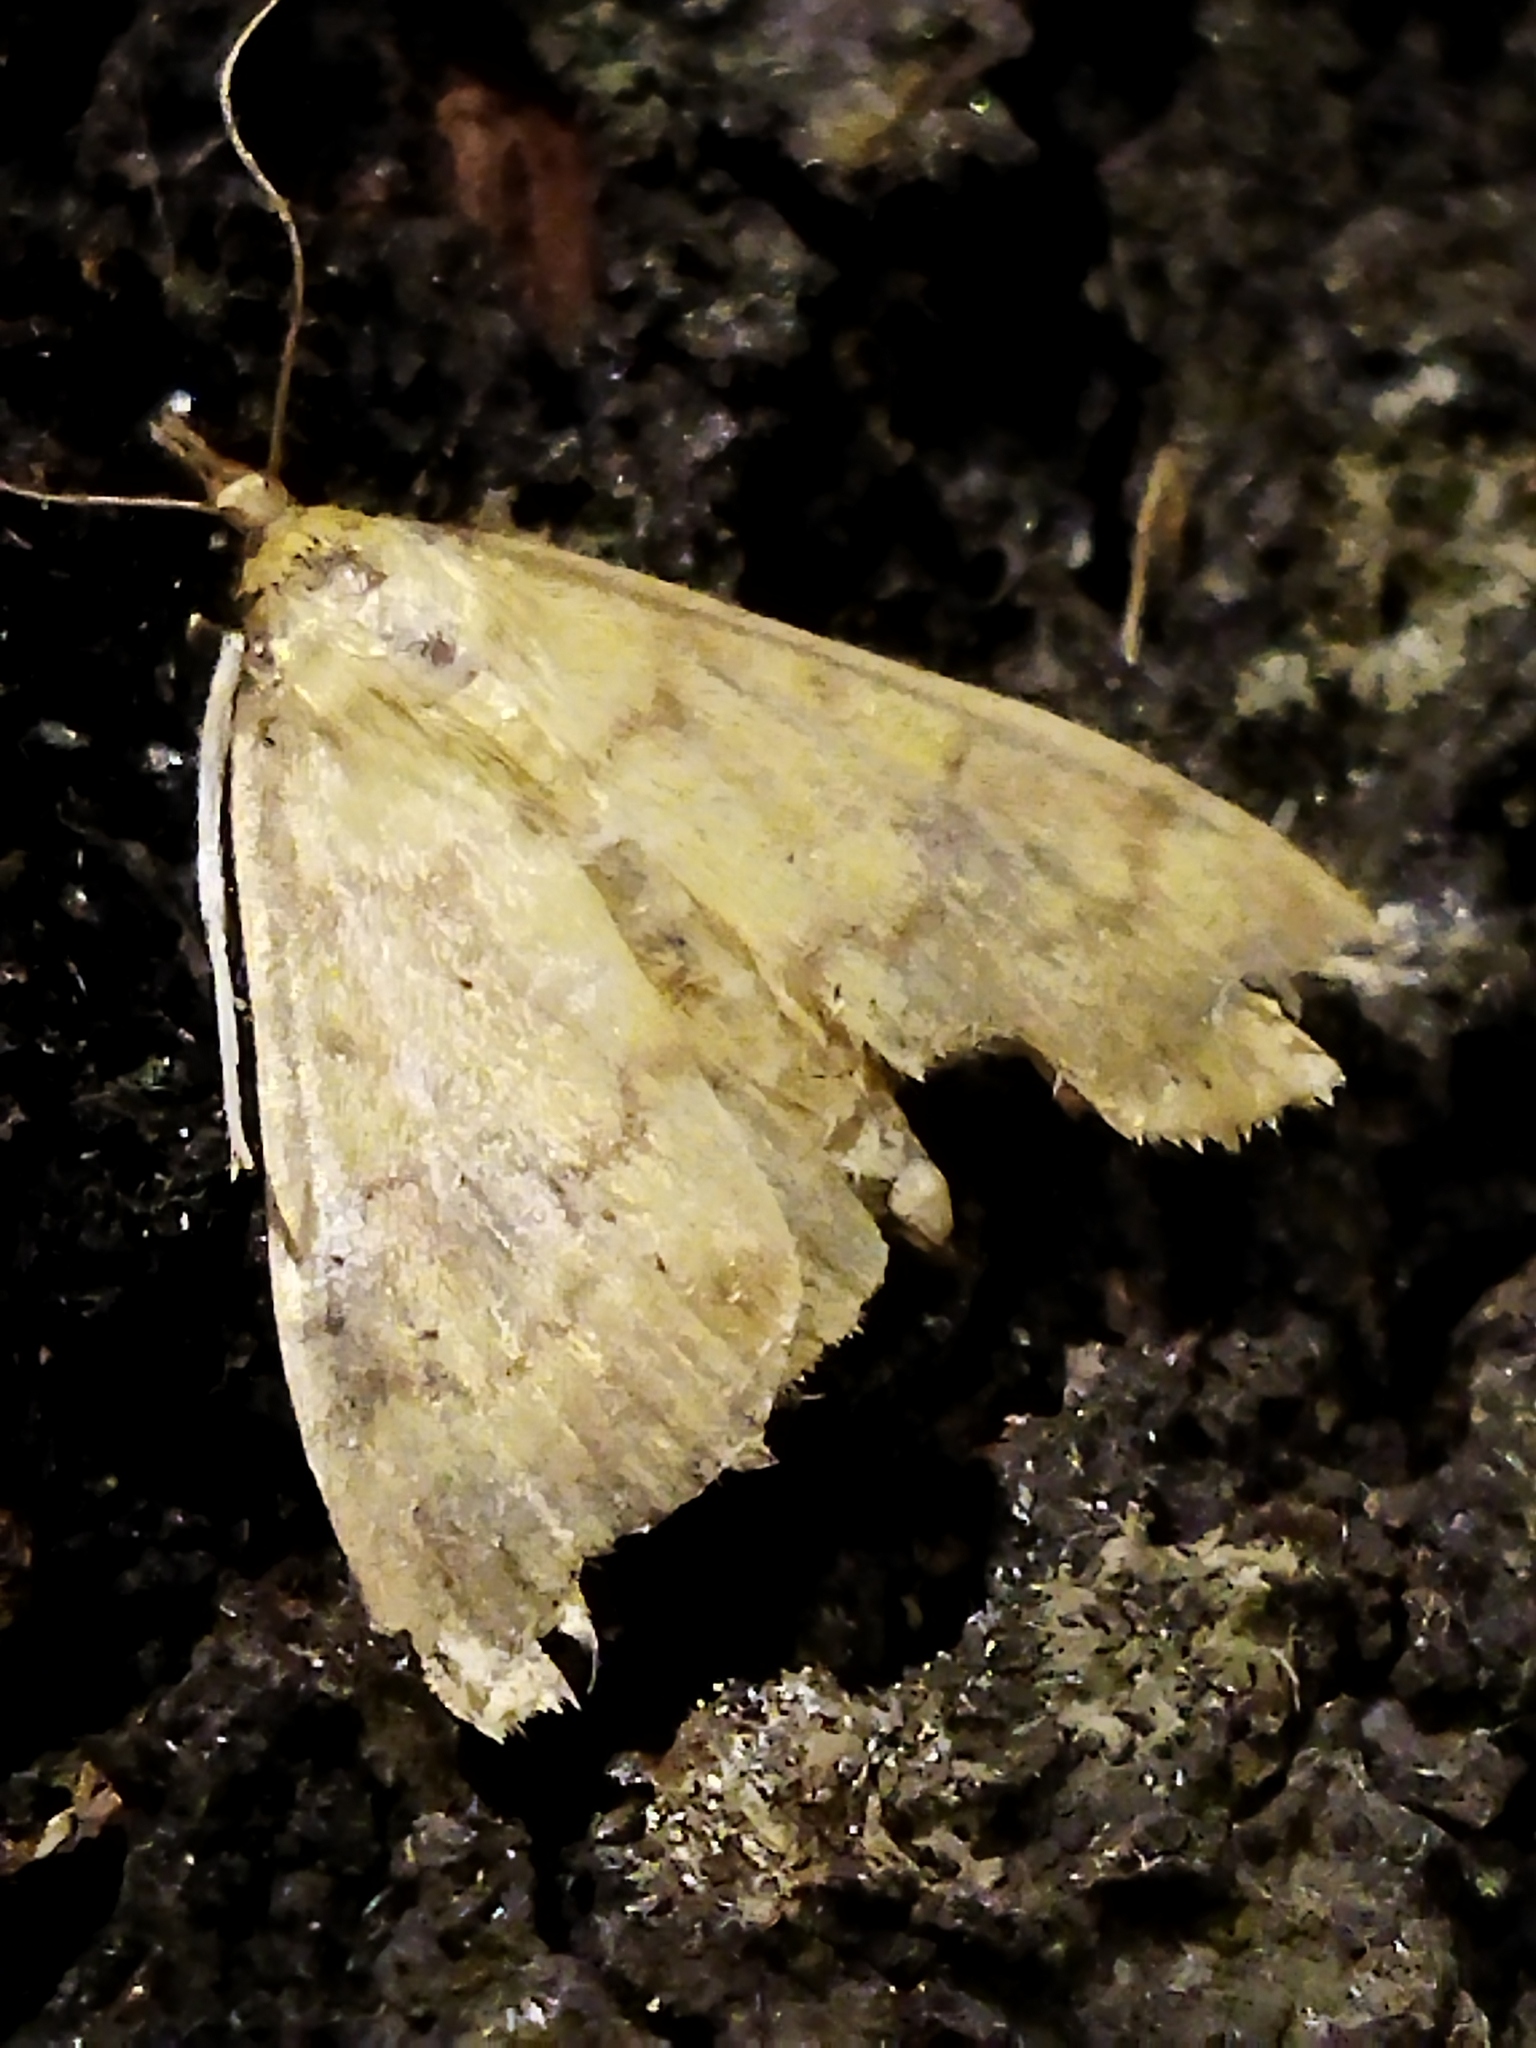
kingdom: Animalia
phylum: Arthropoda
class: Insecta
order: Lepidoptera
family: Crambidae
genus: Ostrinia
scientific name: Ostrinia nubilalis
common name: European corn borer
